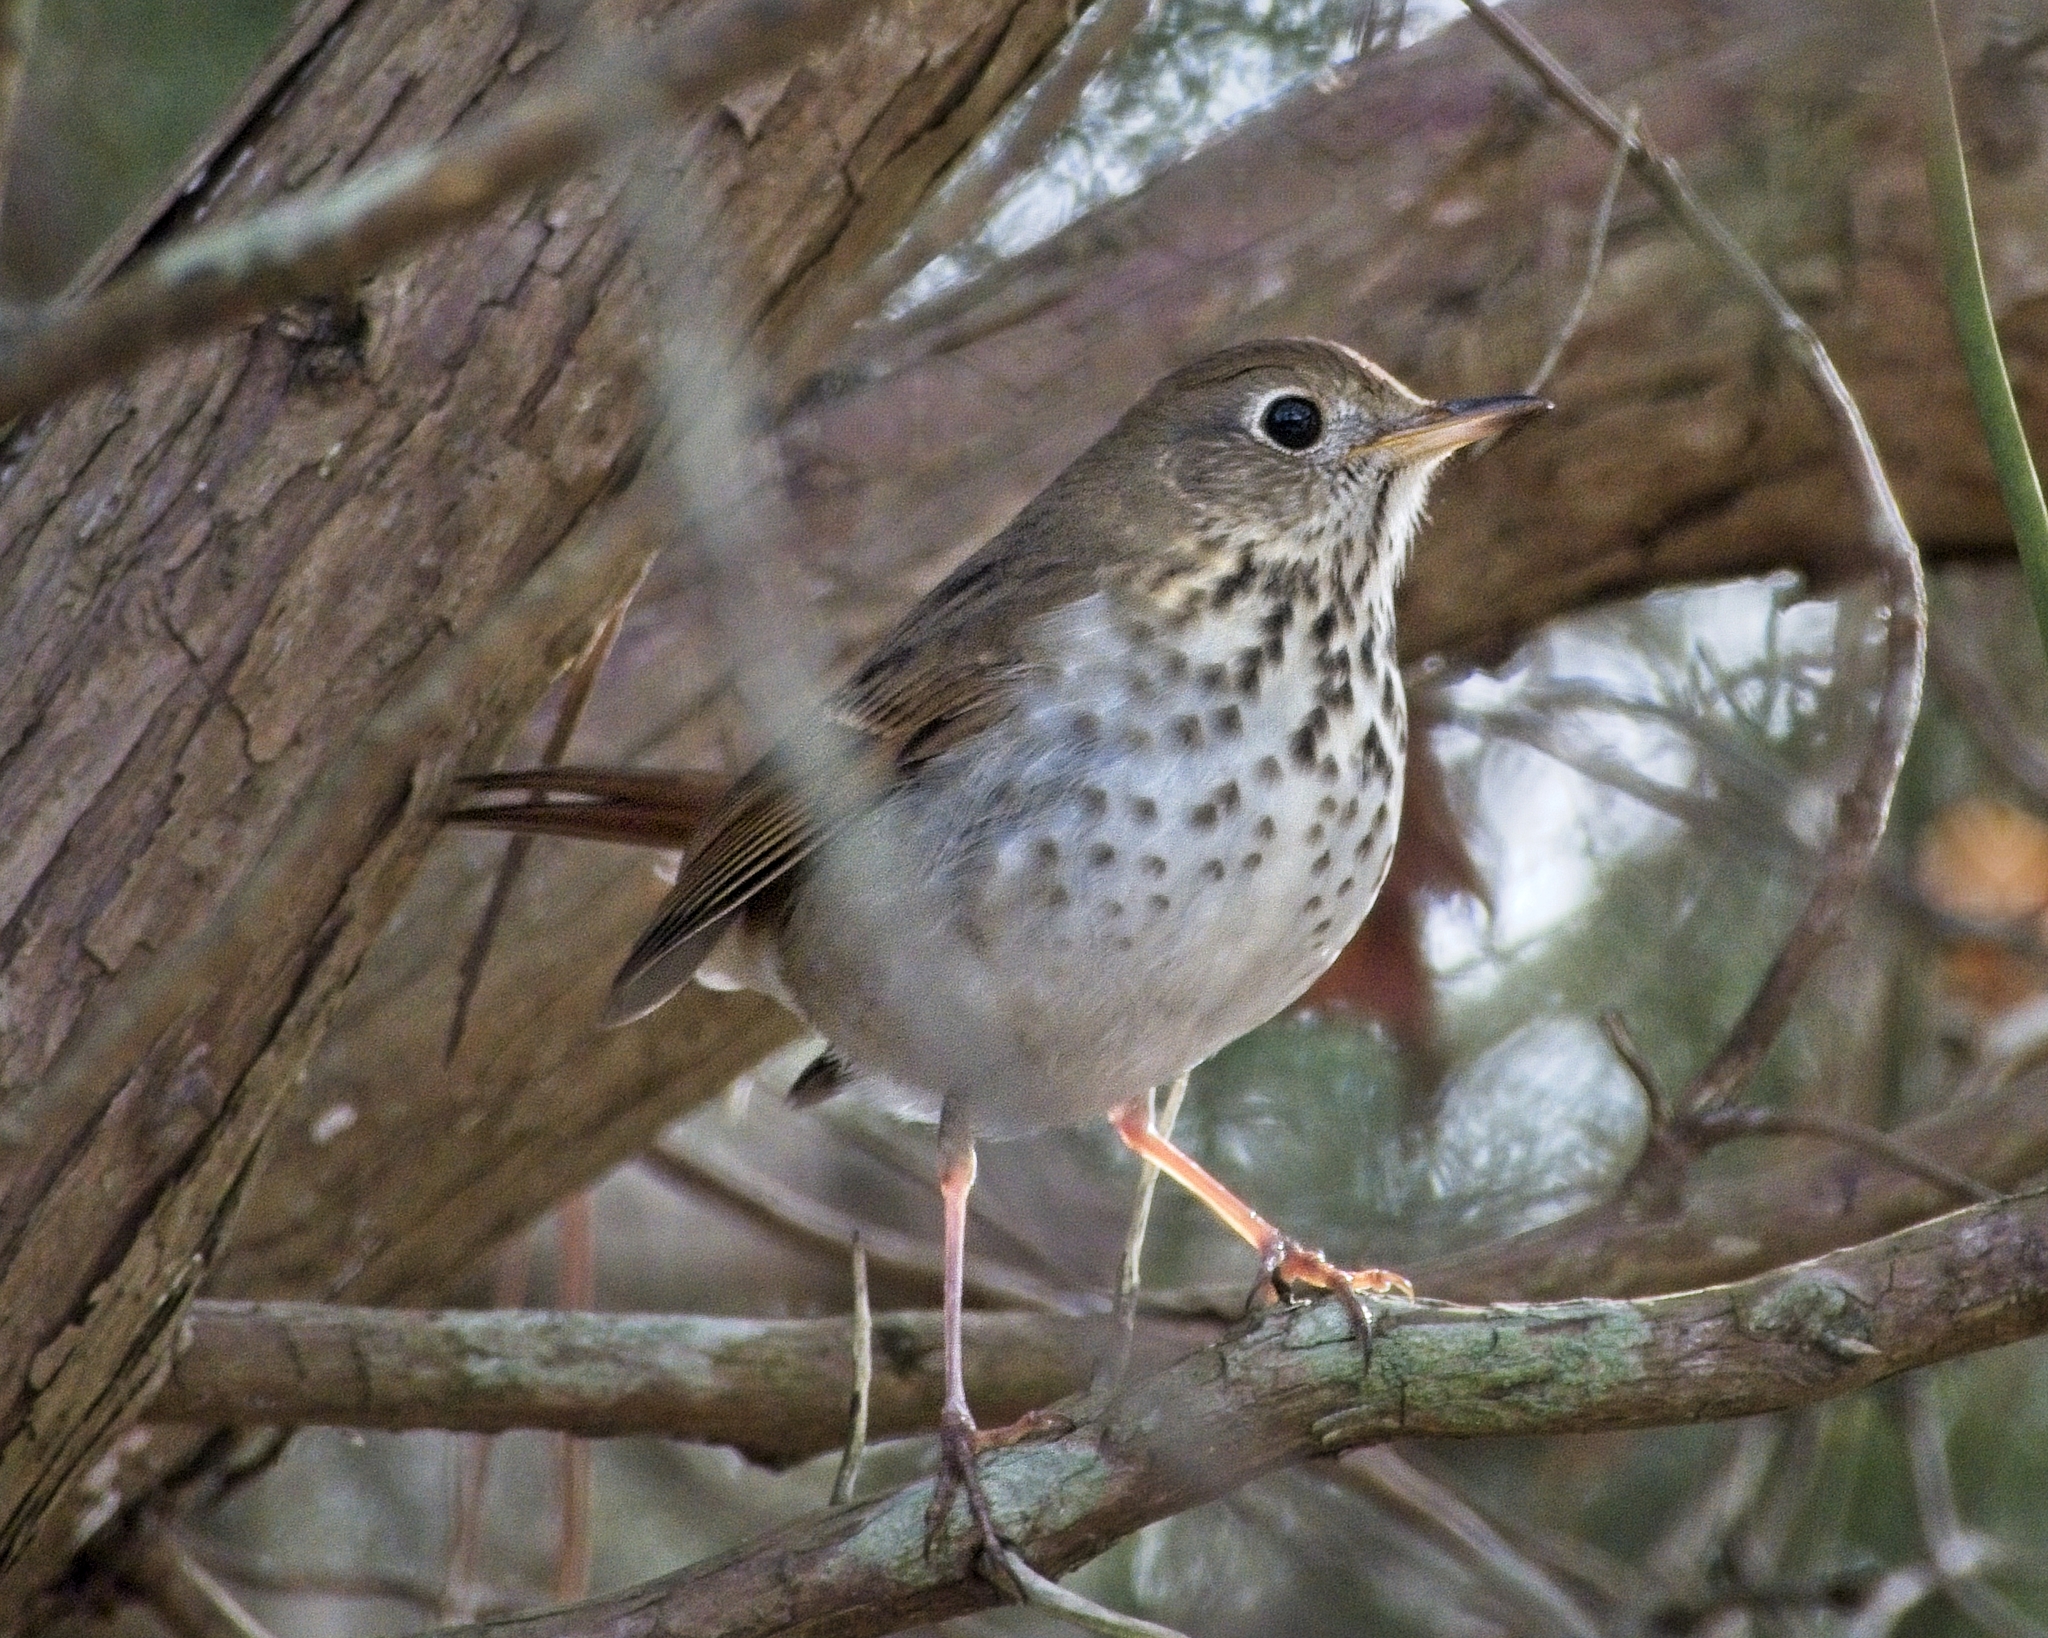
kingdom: Animalia
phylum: Chordata
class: Aves
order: Passeriformes
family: Turdidae
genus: Catharus
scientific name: Catharus guttatus
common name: Hermit thrush
